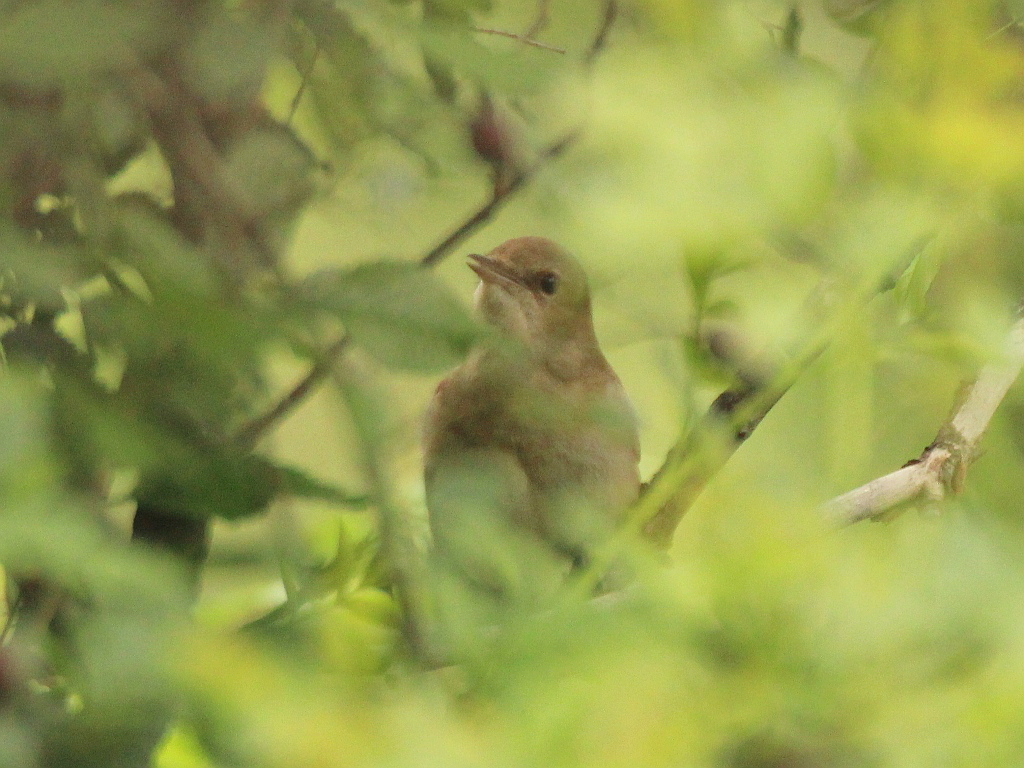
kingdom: Animalia
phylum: Chordata
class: Aves
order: Passeriformes
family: Muscicapidae
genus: Luscinia
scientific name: Luscinia megarhynchos
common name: Common nightingale
